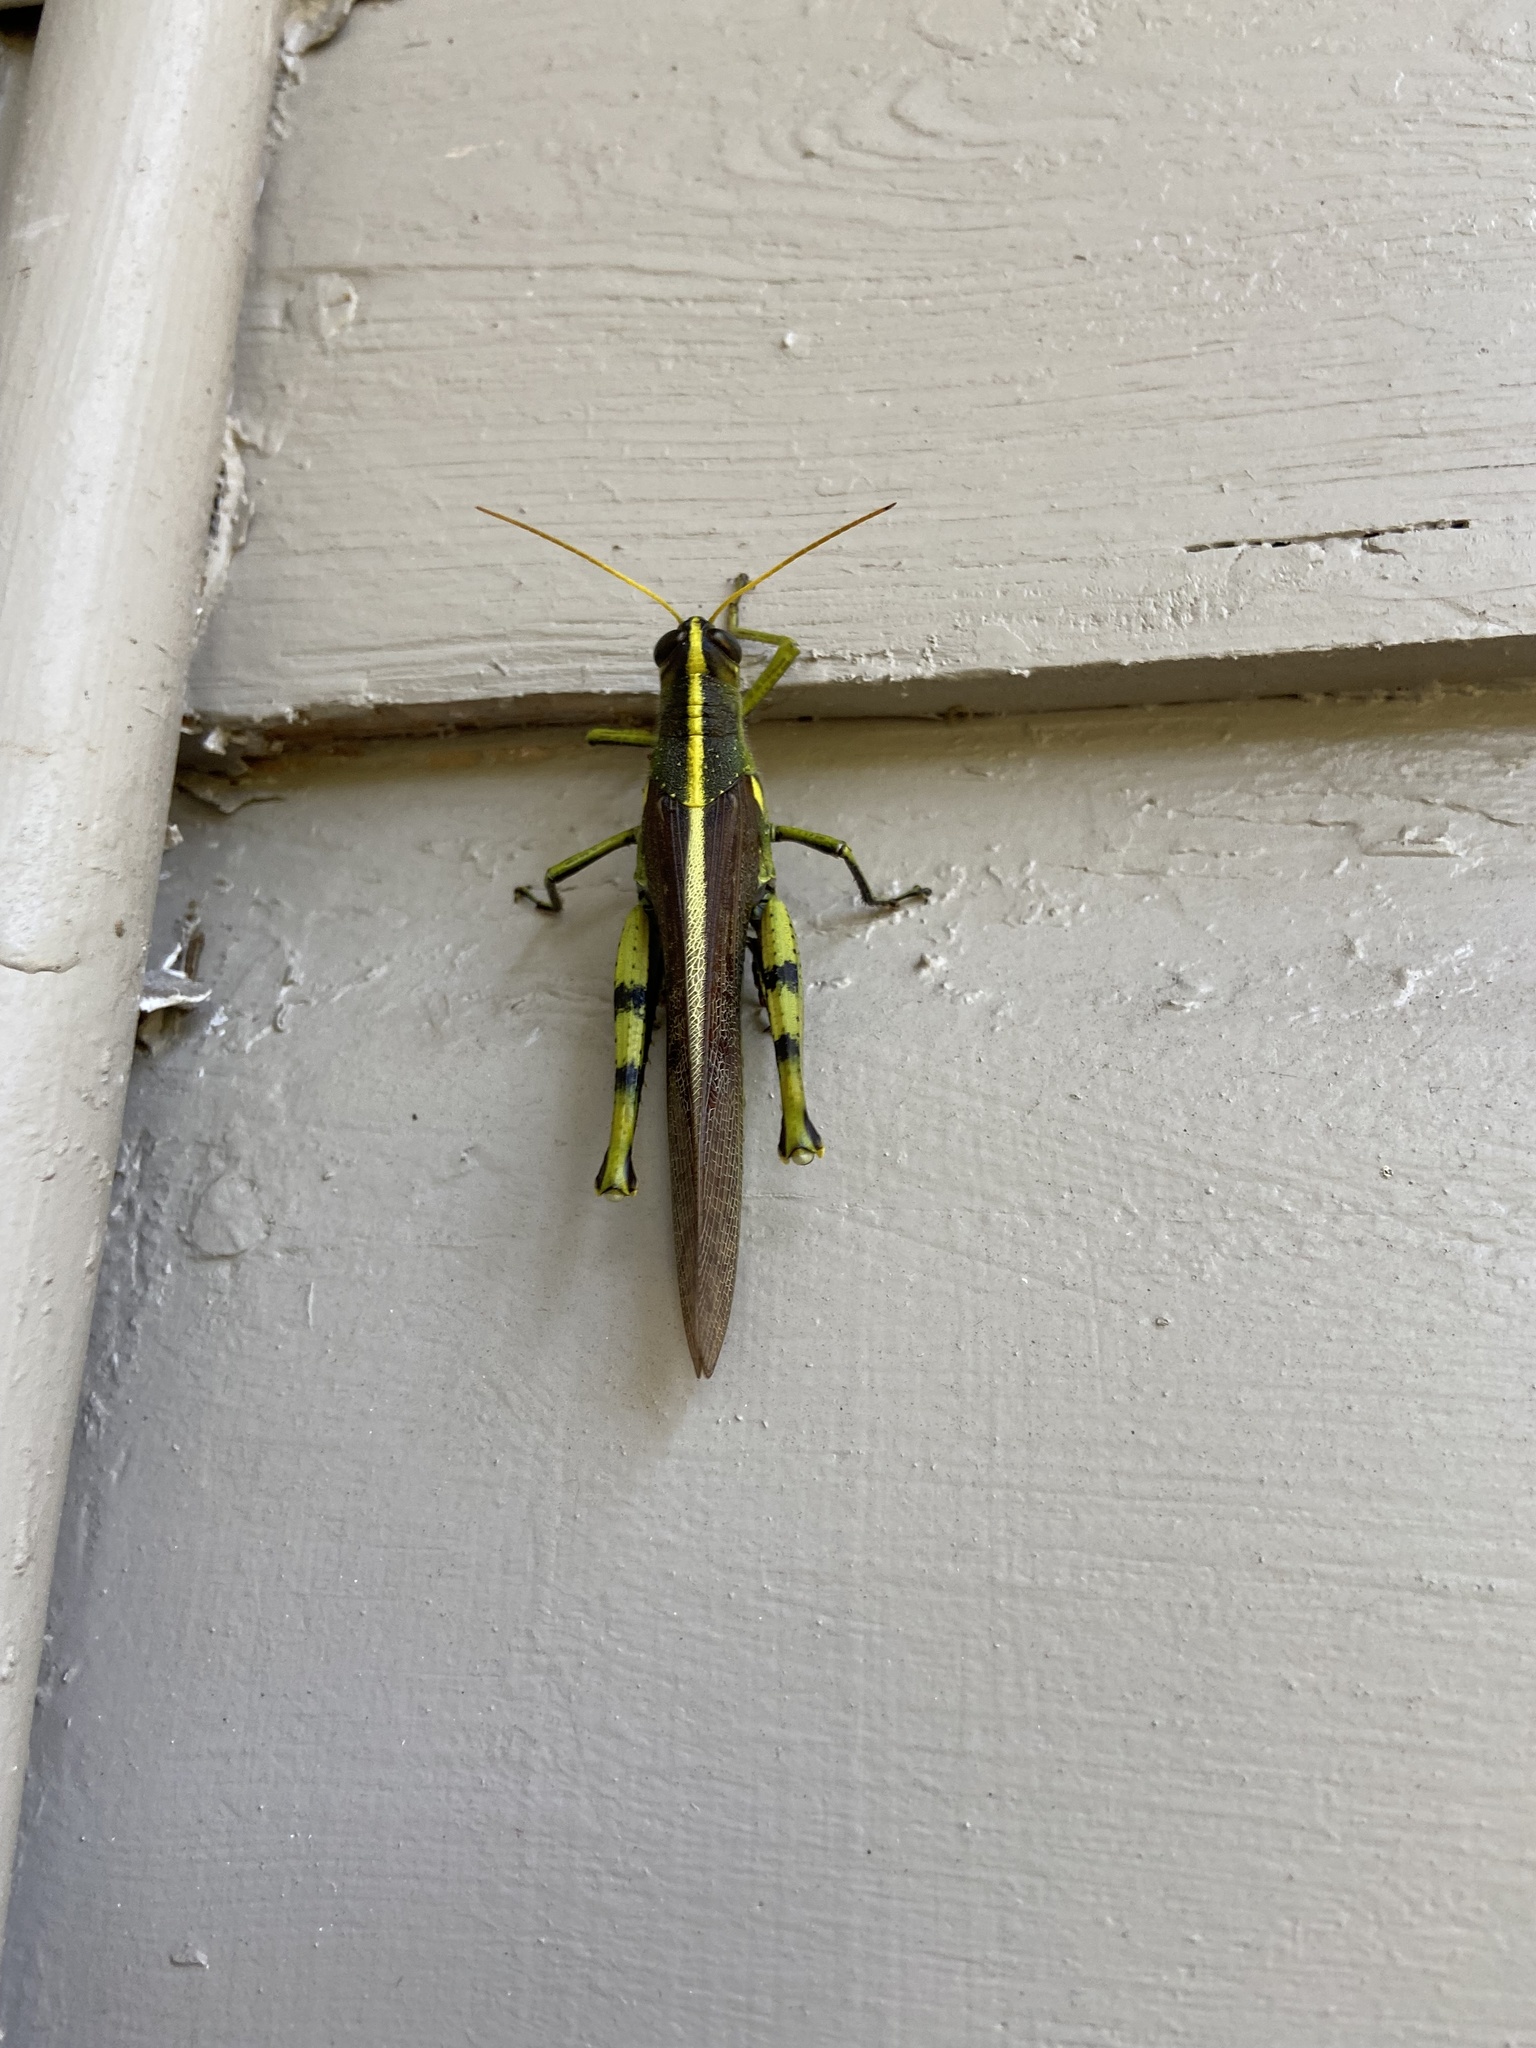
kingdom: Animalia
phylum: Arthropoda
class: Insecta
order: Orthoptera
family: Acrididae
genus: Schistocerca
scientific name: Schistocerca obscura
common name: Obscure bird grasshopper
